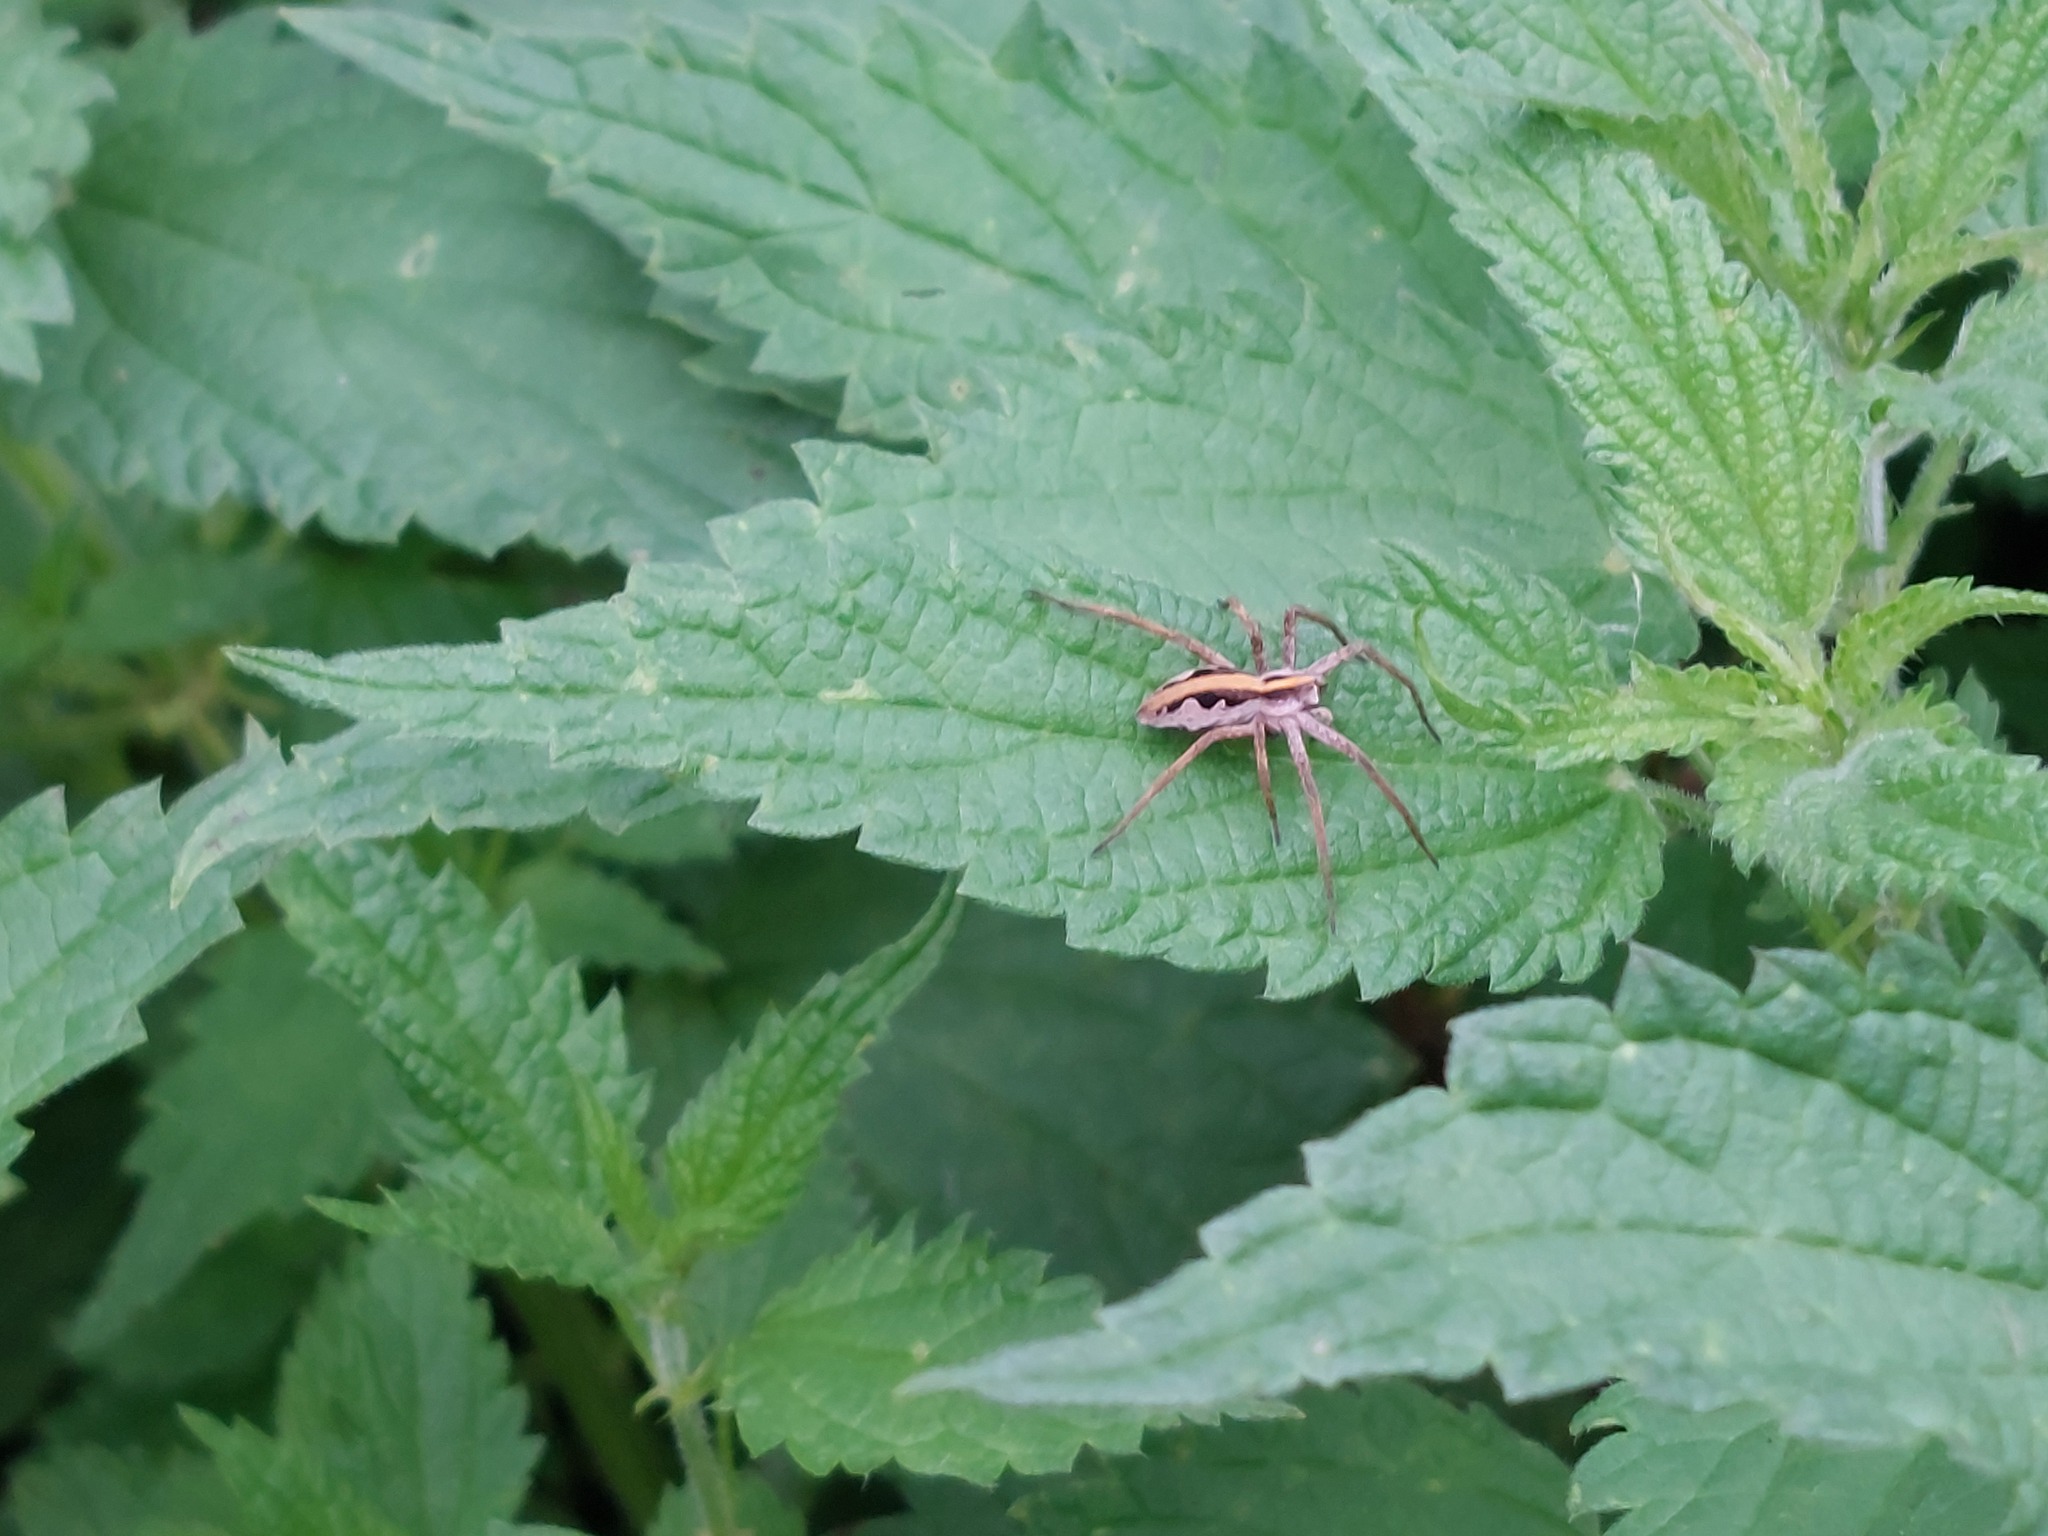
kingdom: Animalia
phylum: Arthropoda
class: Arachnida
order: Araneae
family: Pisauridae
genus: Pisaura
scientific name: Pisaura mirabilis
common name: Tent spider
